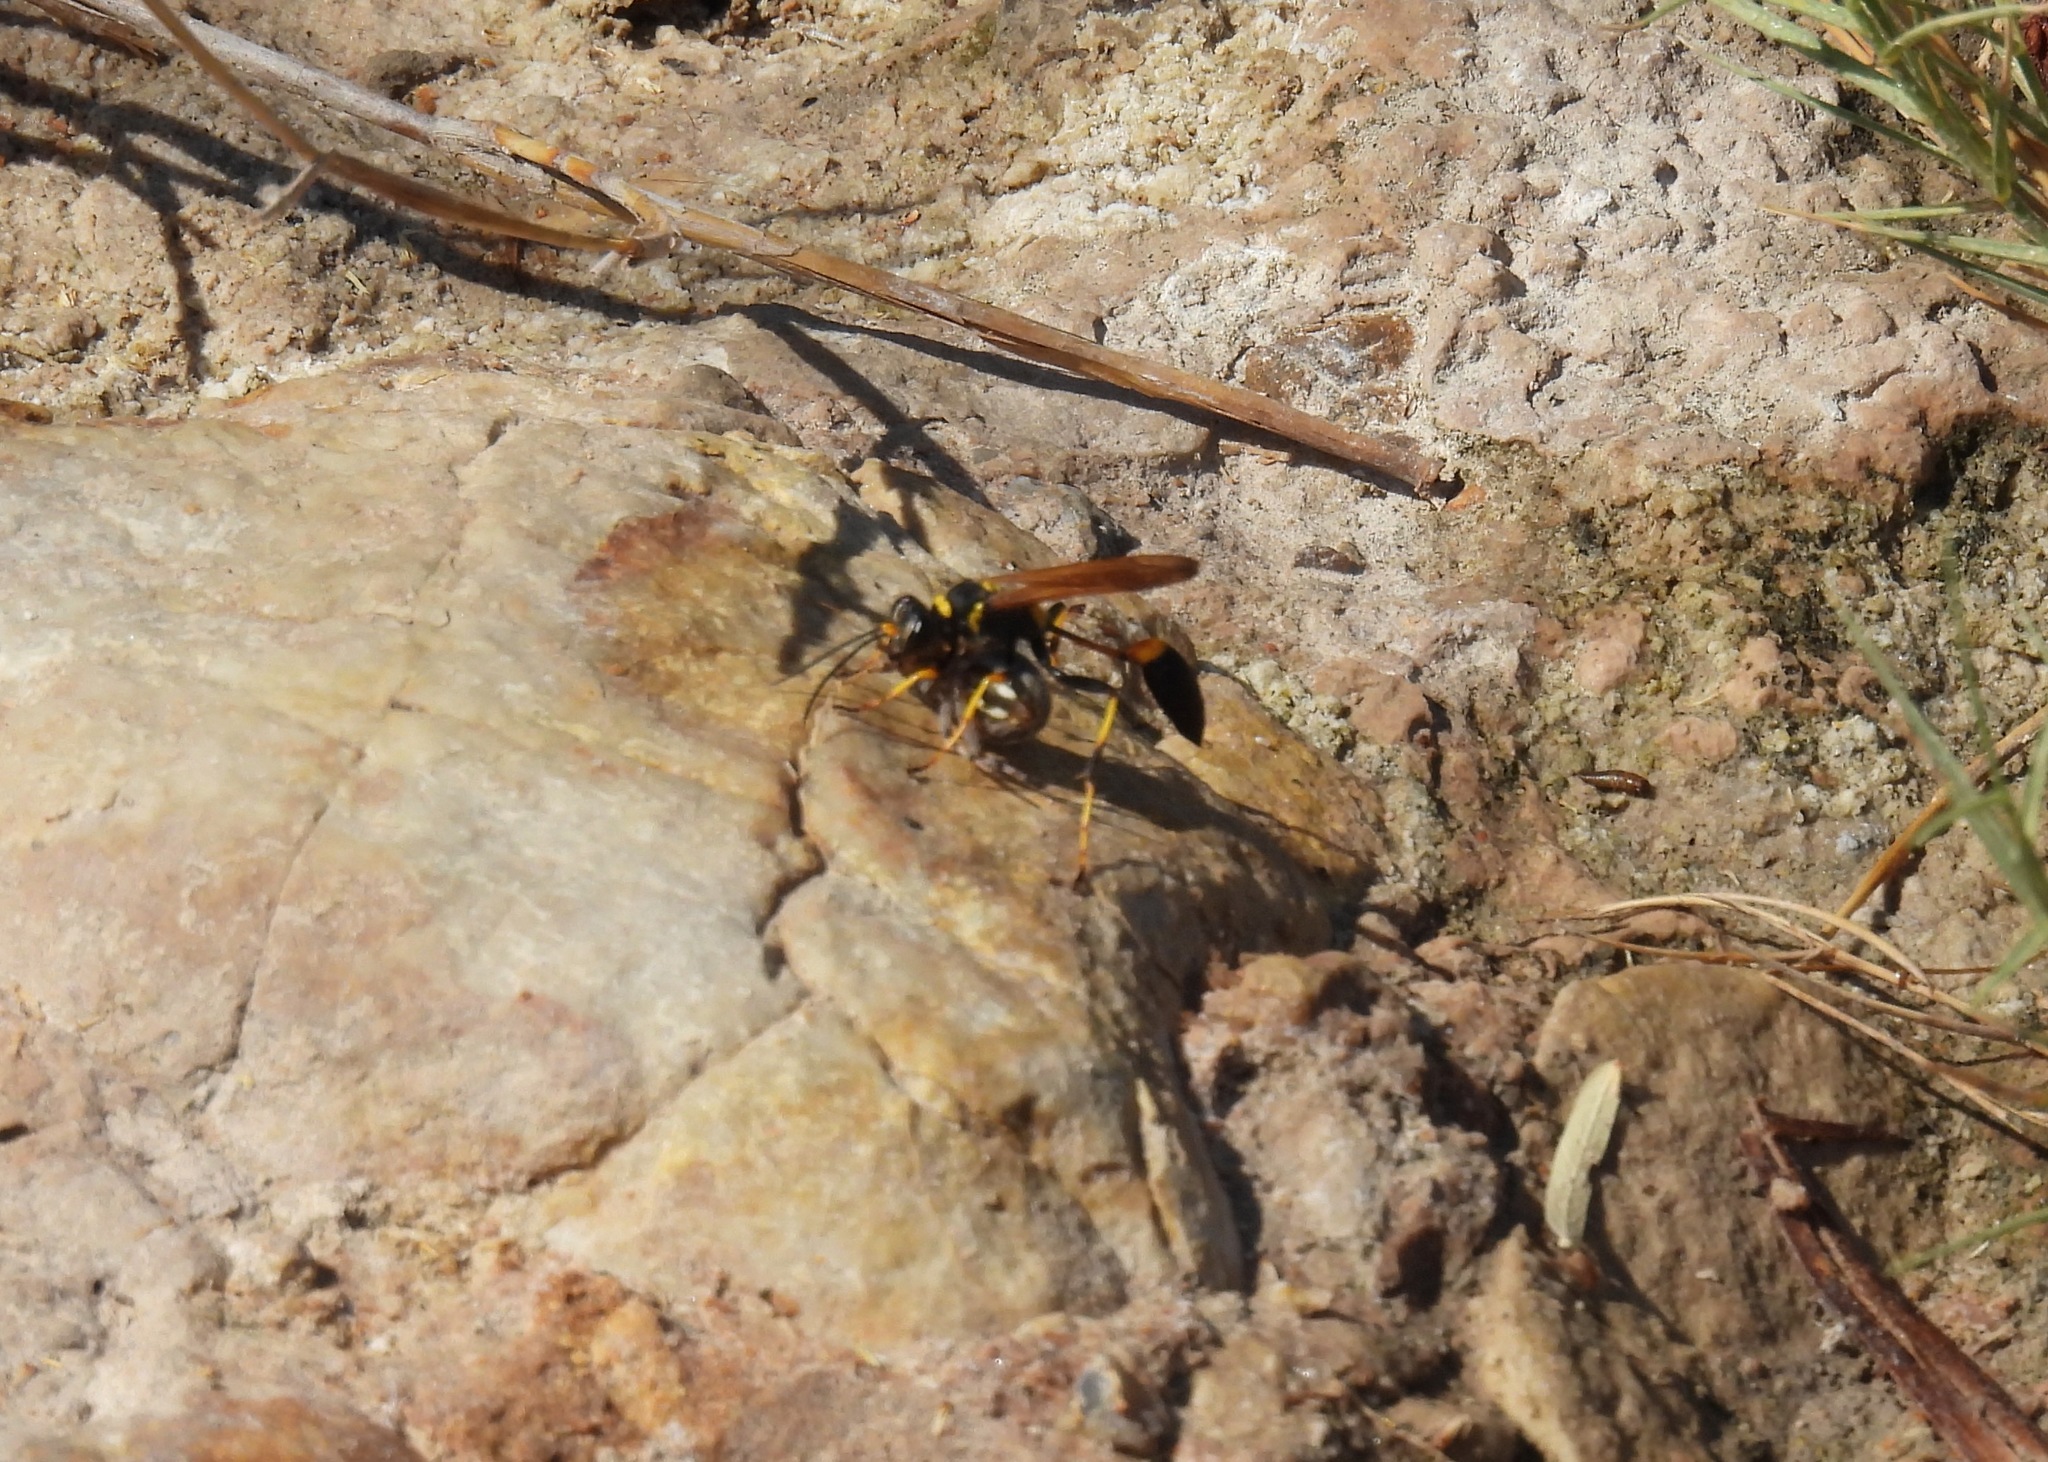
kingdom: Animalia
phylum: Arthropoda
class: Insecta
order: Hymenoptera
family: Sphecidae
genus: Sceliphron
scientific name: Sceliphron caementarium
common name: Mud dauber
